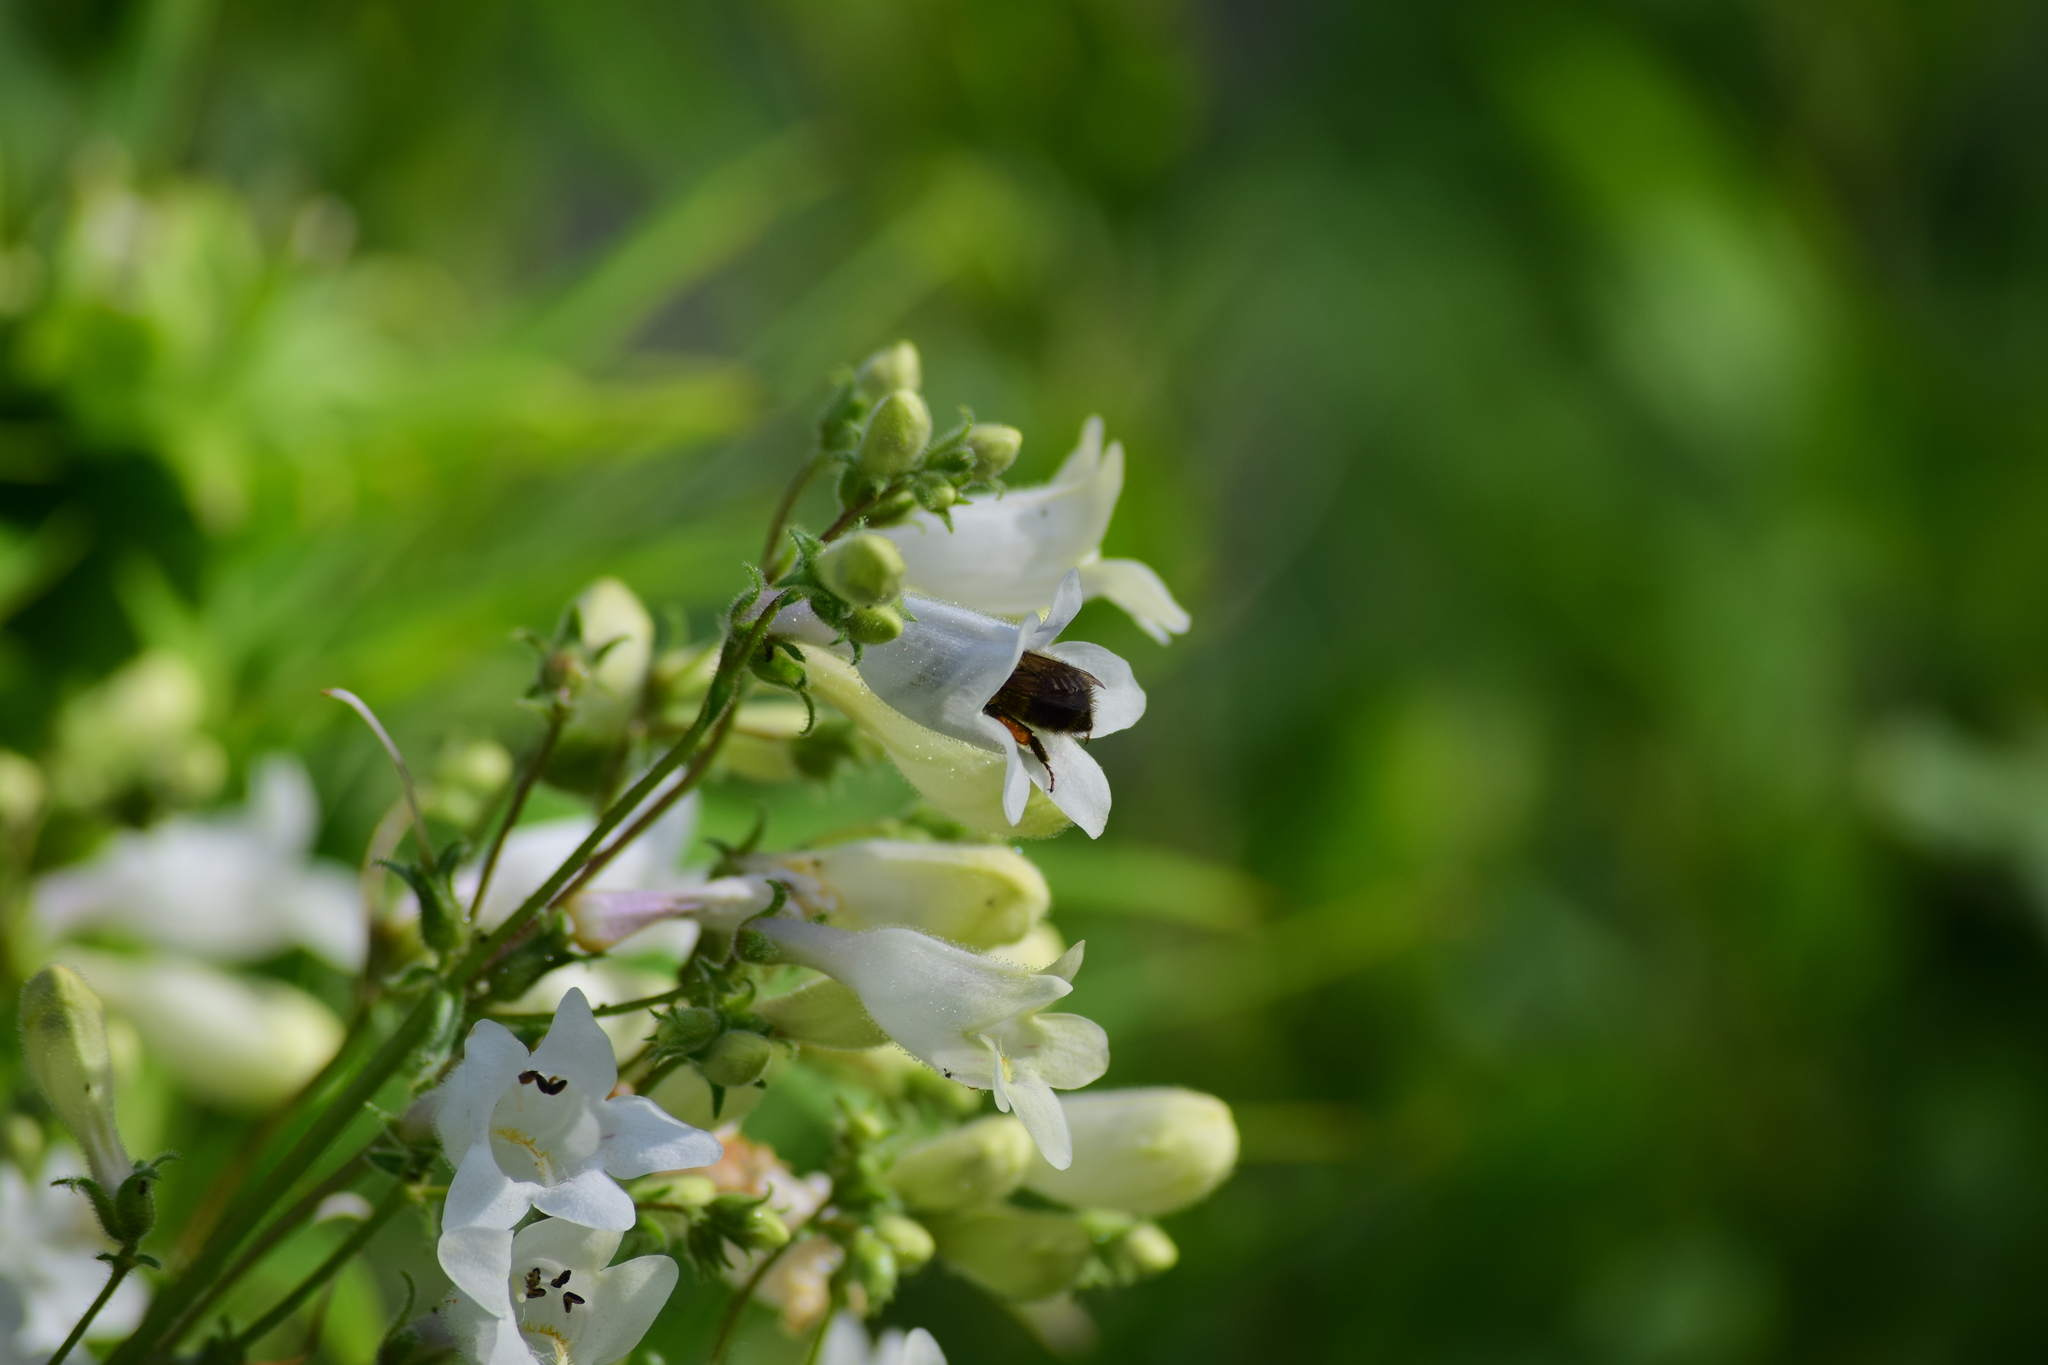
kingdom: Animalia
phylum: Arthropoda
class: Insecta
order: Hymenoptera
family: Apidae
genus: Bombus
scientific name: Bombus vagans
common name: Half-black bumble bee
